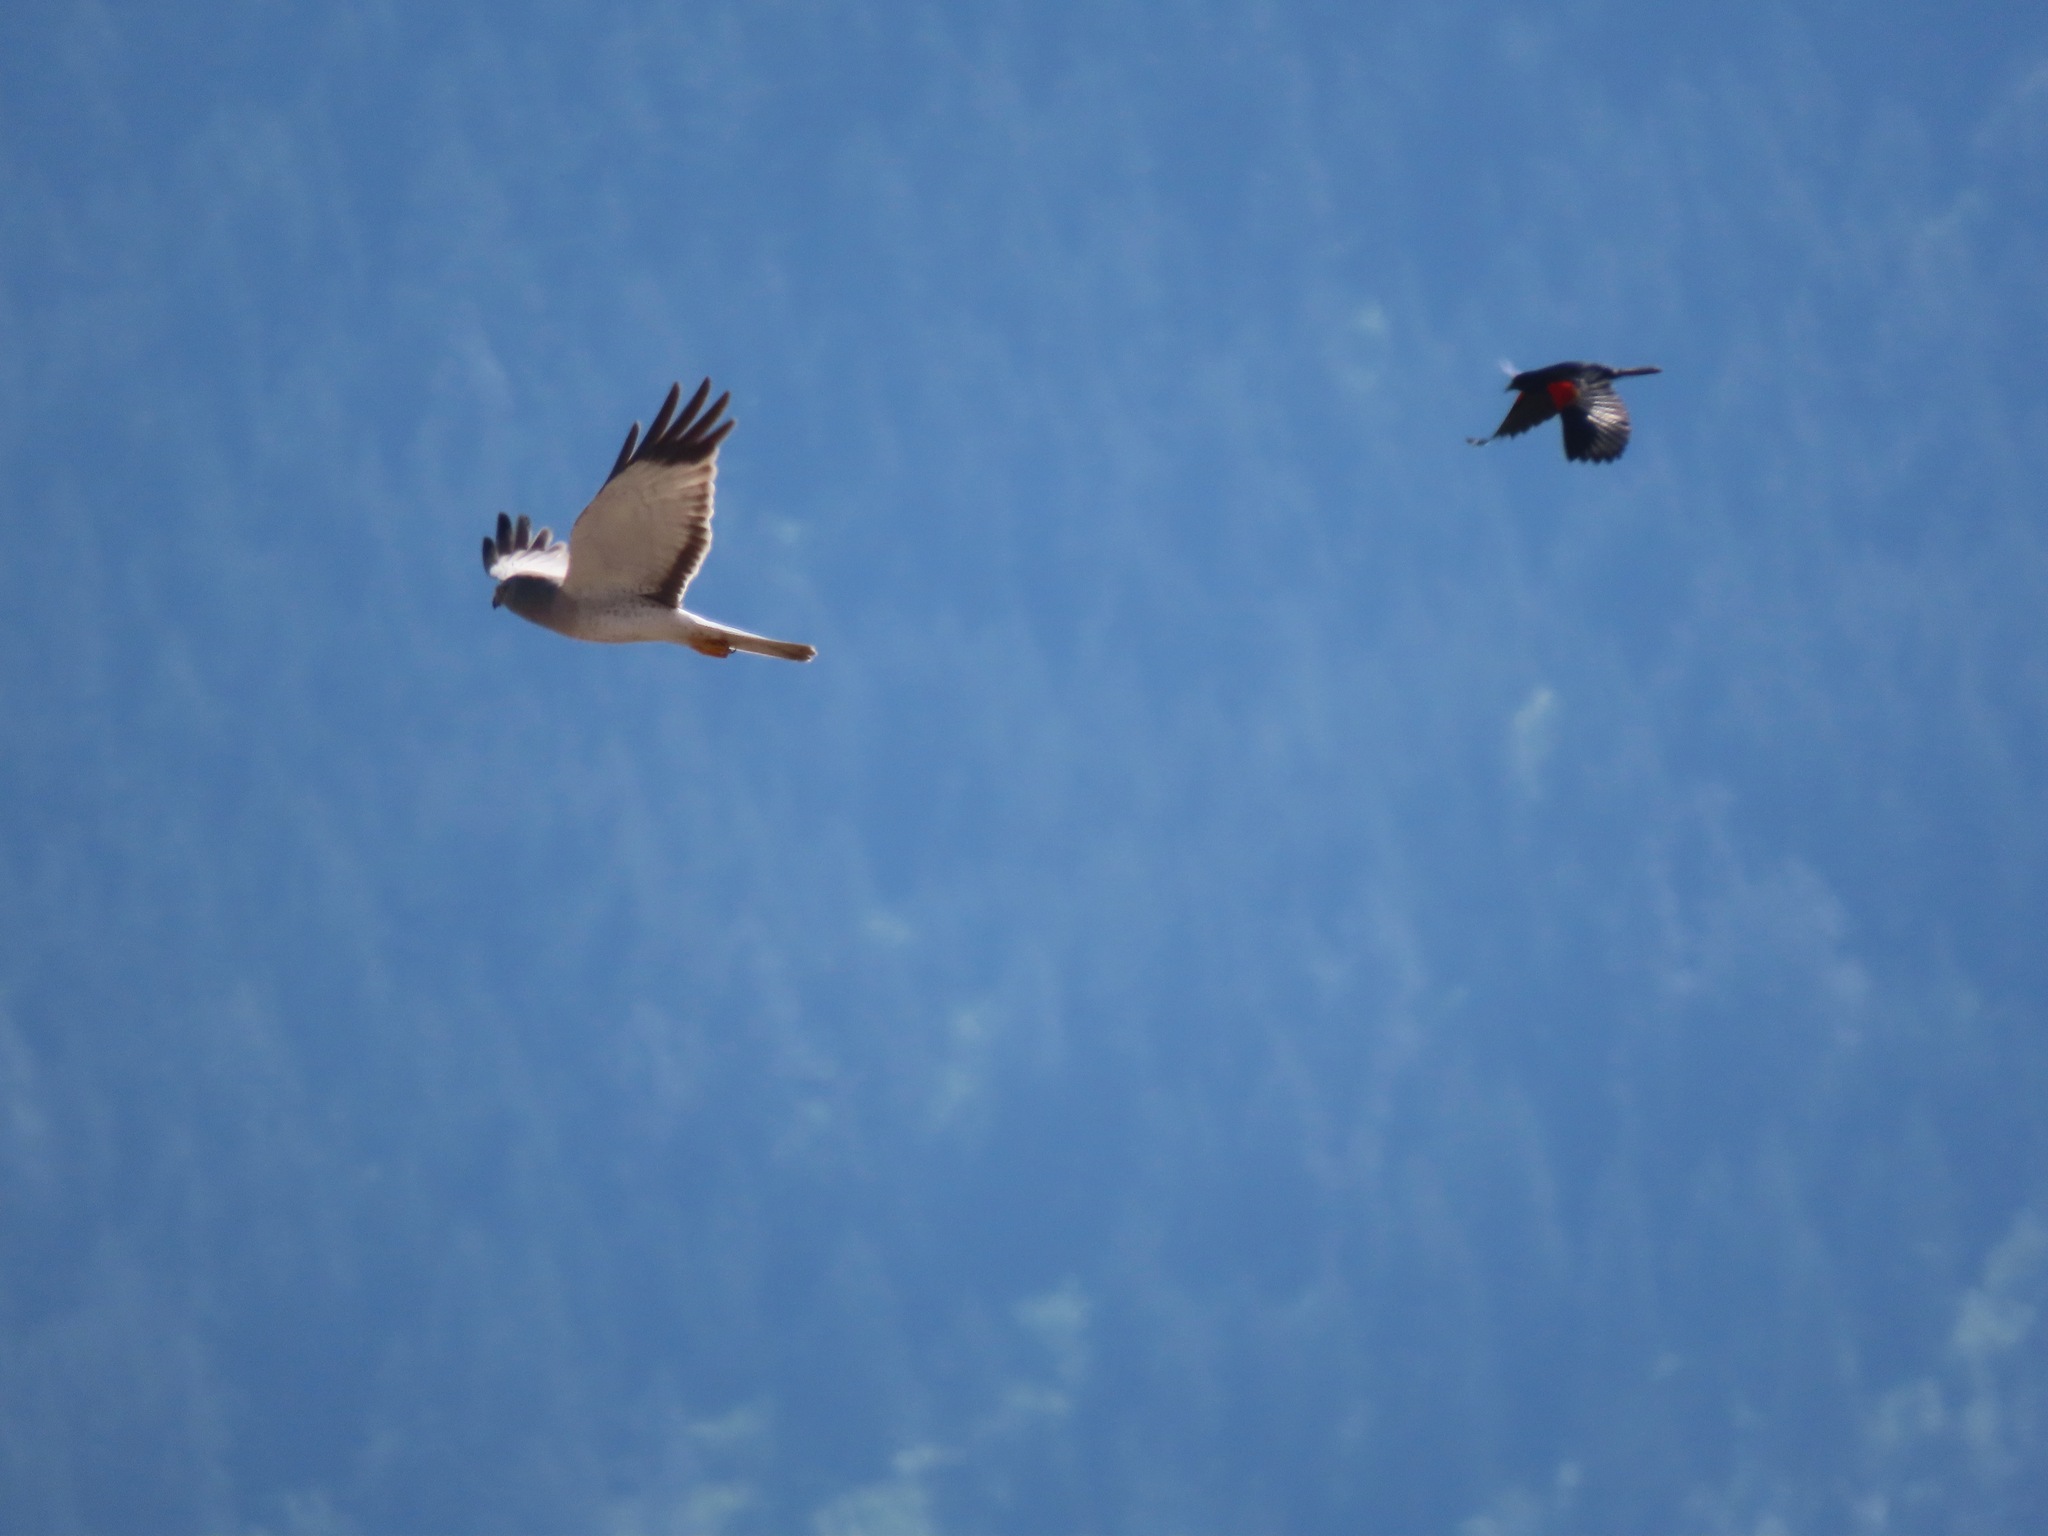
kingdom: Animalia
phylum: Chordata
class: Aves
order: Accipitriformes
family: Accipitridae
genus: Circus
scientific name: Circus cyaneus
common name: Hen harrier
